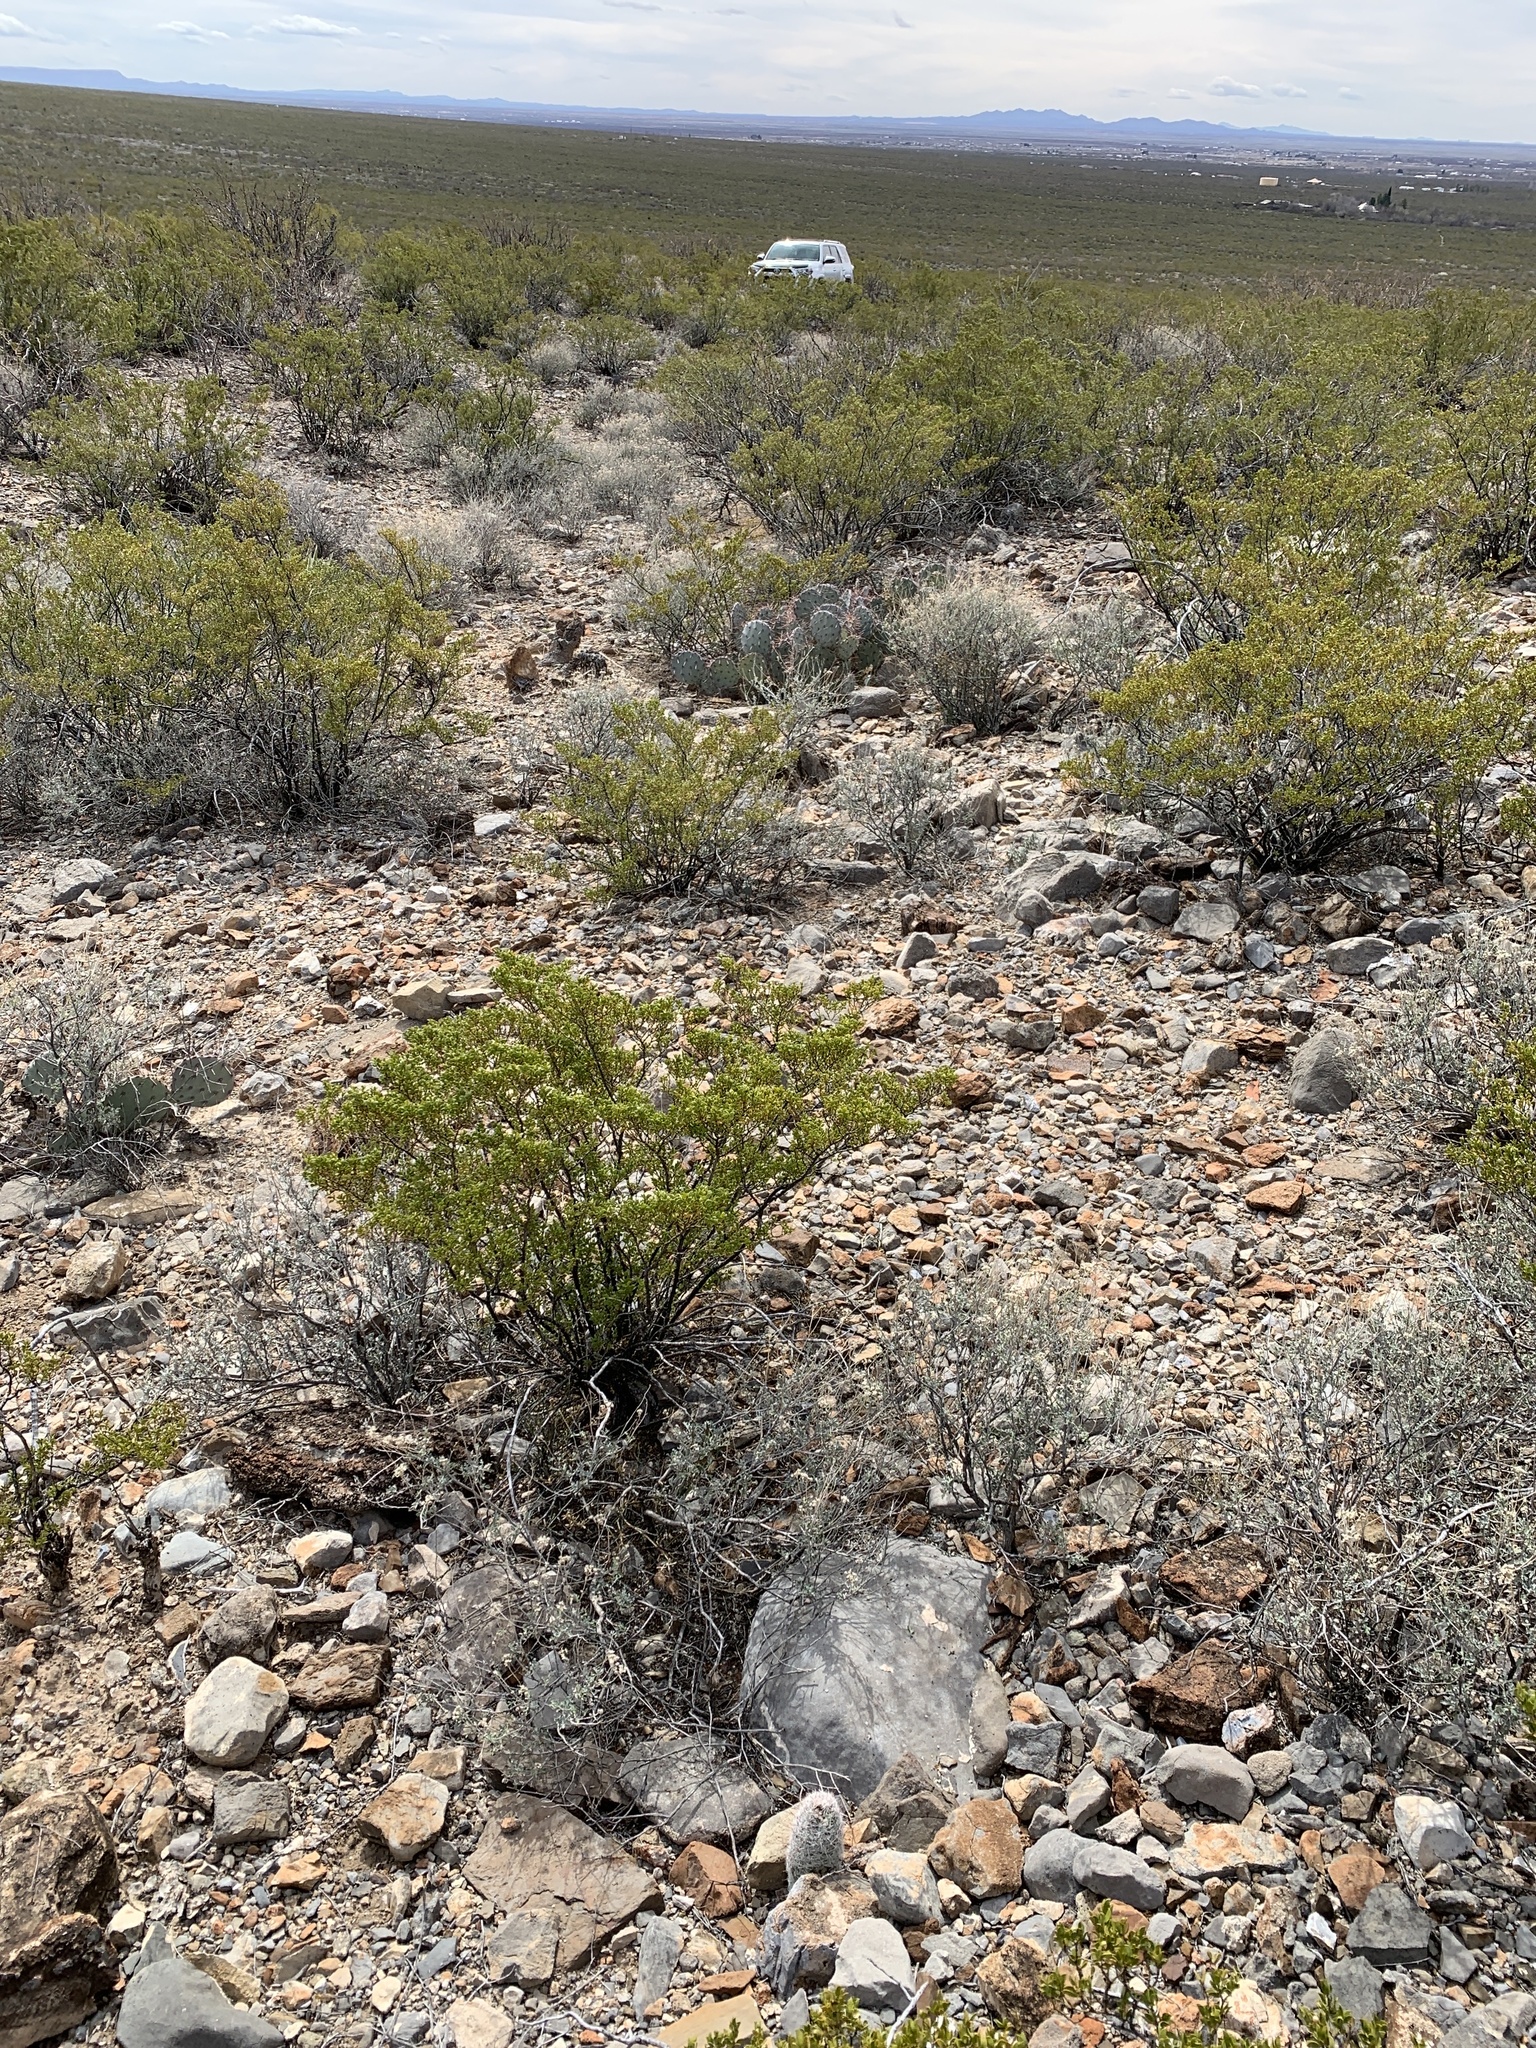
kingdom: Plantae
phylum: Tracheophyta
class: Magnoliopsida
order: Zygophyllales
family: Zygophyllaceae
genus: Larrea
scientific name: Larrea tridentata
